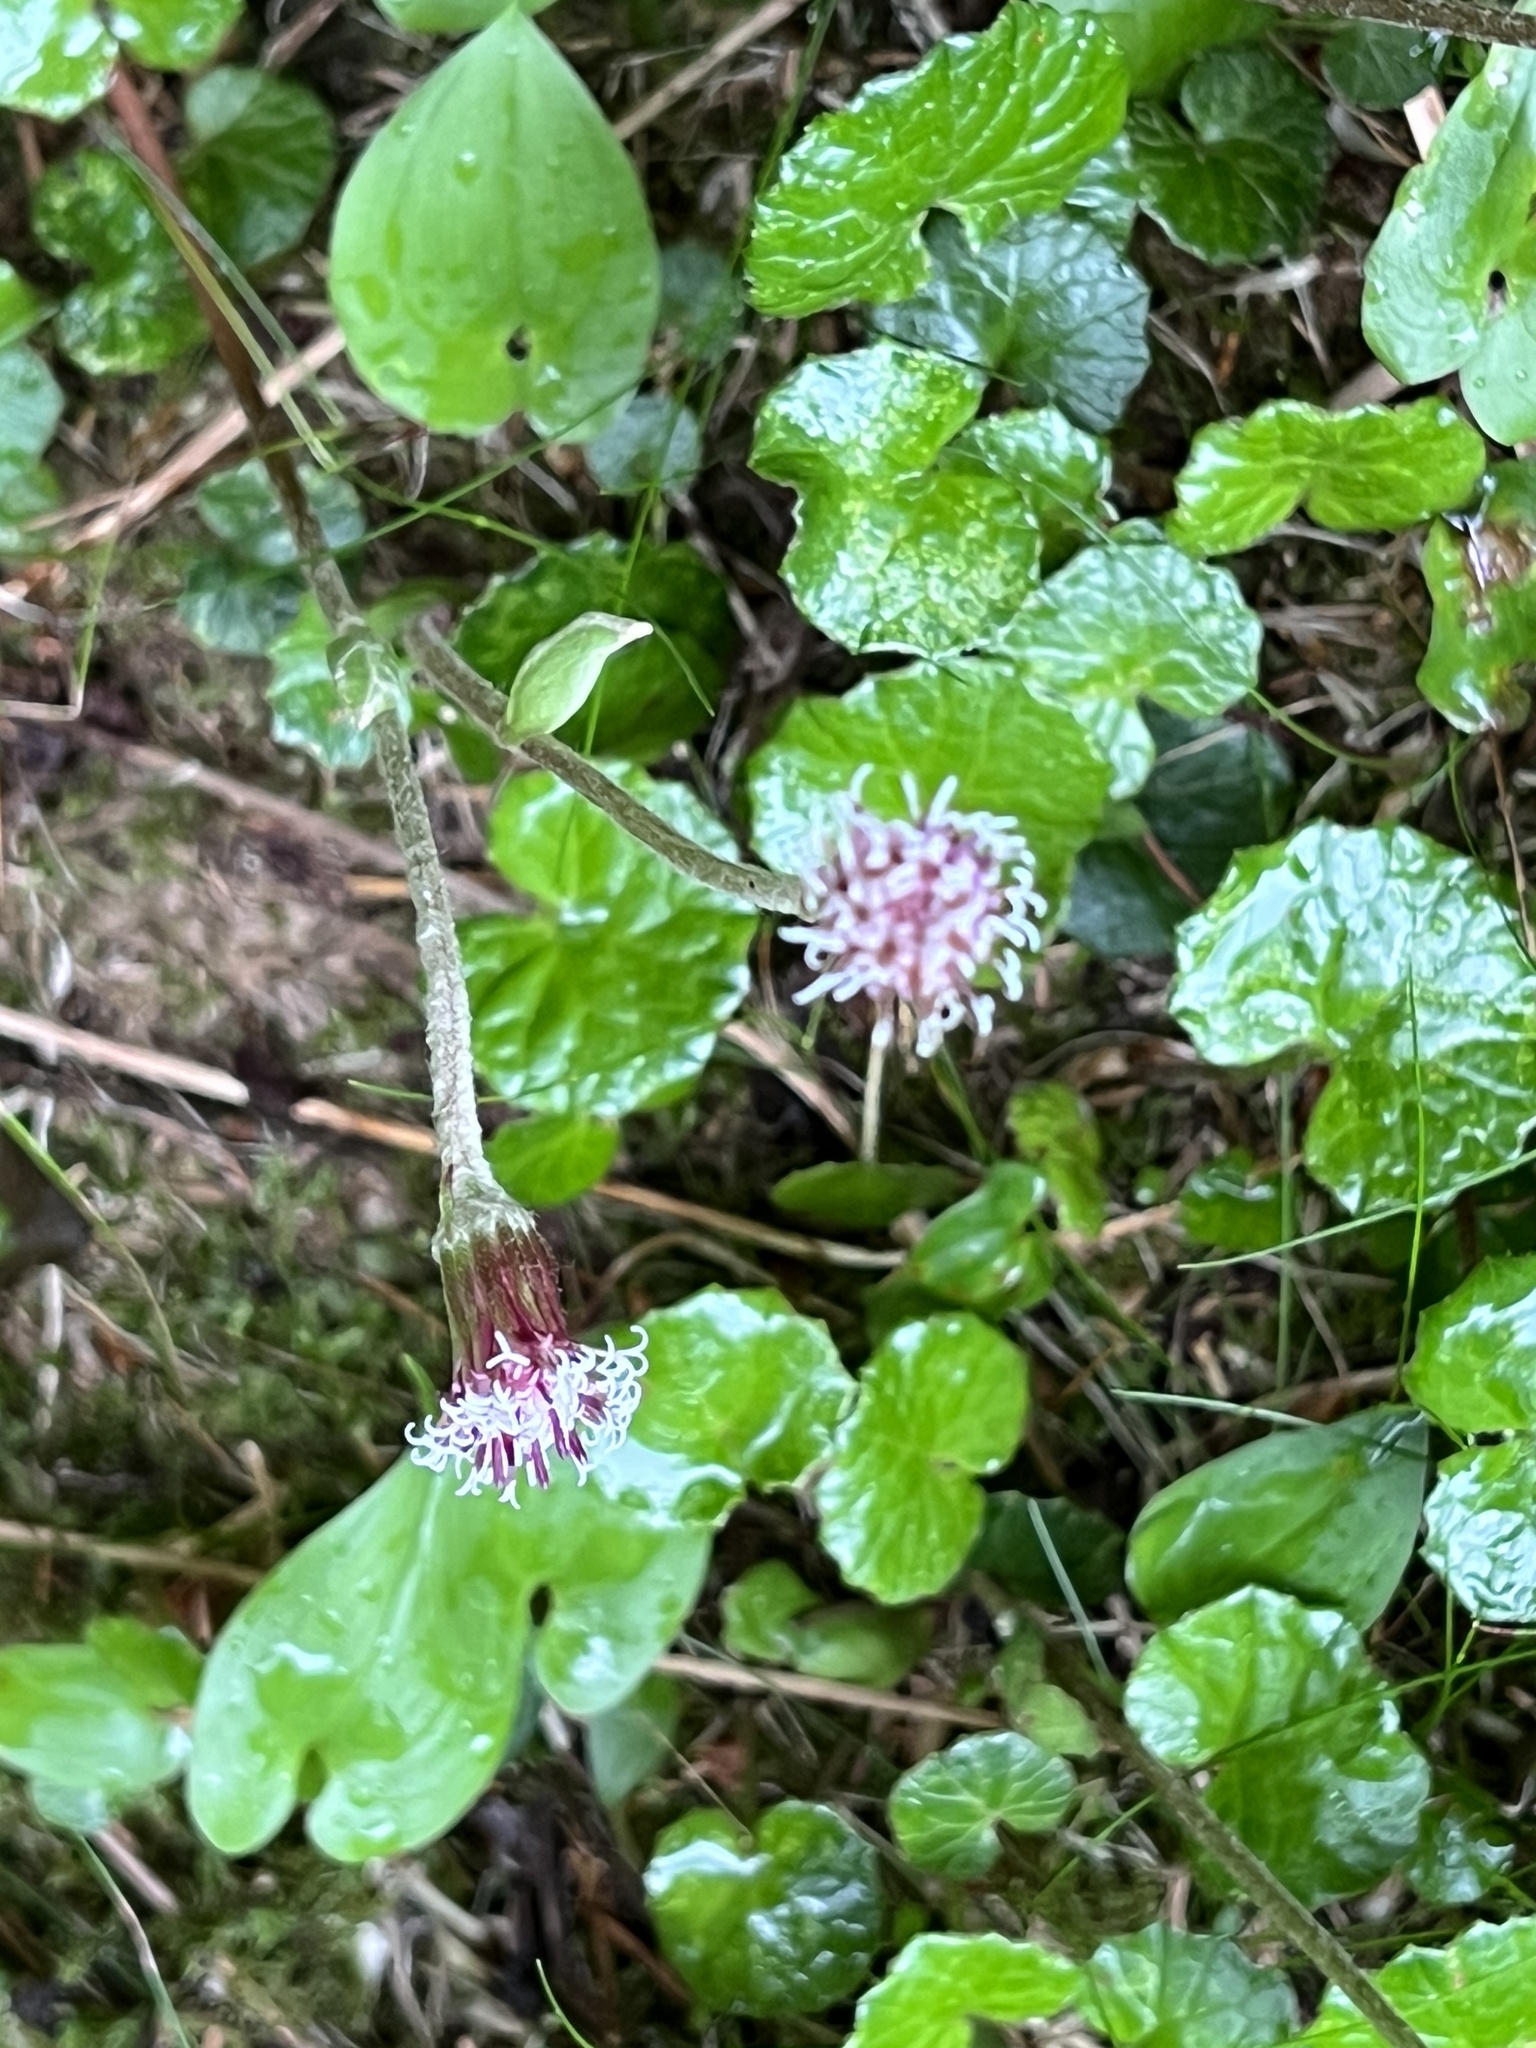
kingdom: Plantae
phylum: Tracheophyta
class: Magnoliopsida
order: Asterales
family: Asteraceae
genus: Homogyne
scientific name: Homogyne alpina
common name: Purple colt's-foot
